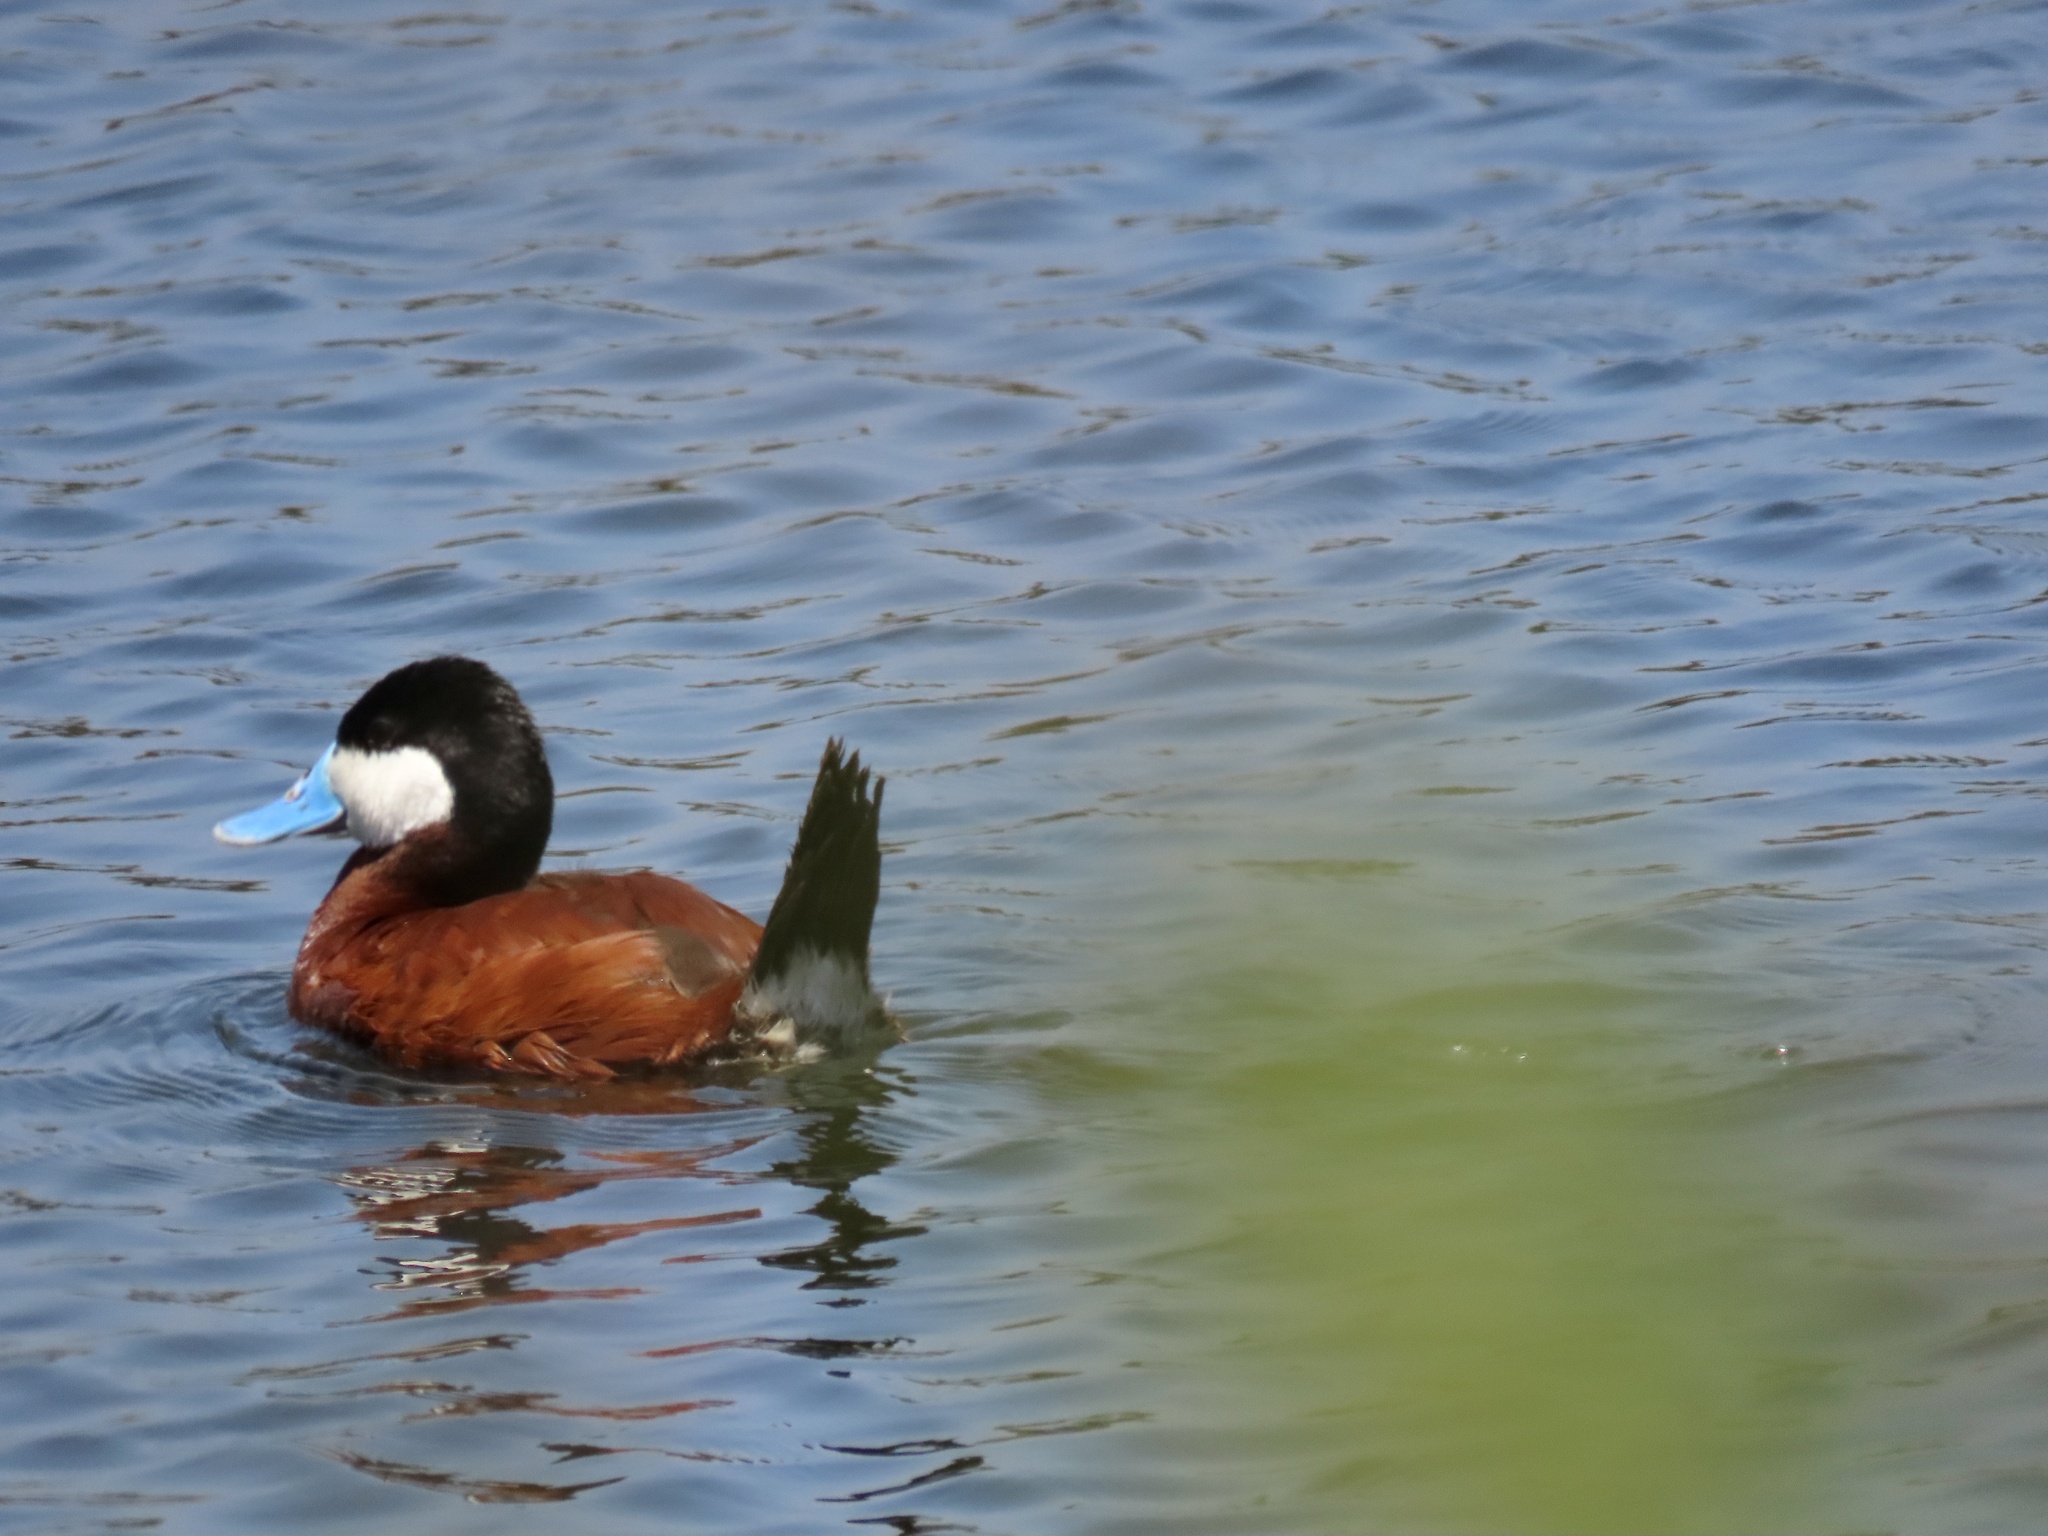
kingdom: Animalia
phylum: Chordata
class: Aves
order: Anseriformes
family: Anatidae
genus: Oxyura
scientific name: Oxyura jamaicensis
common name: Ruddy duck
